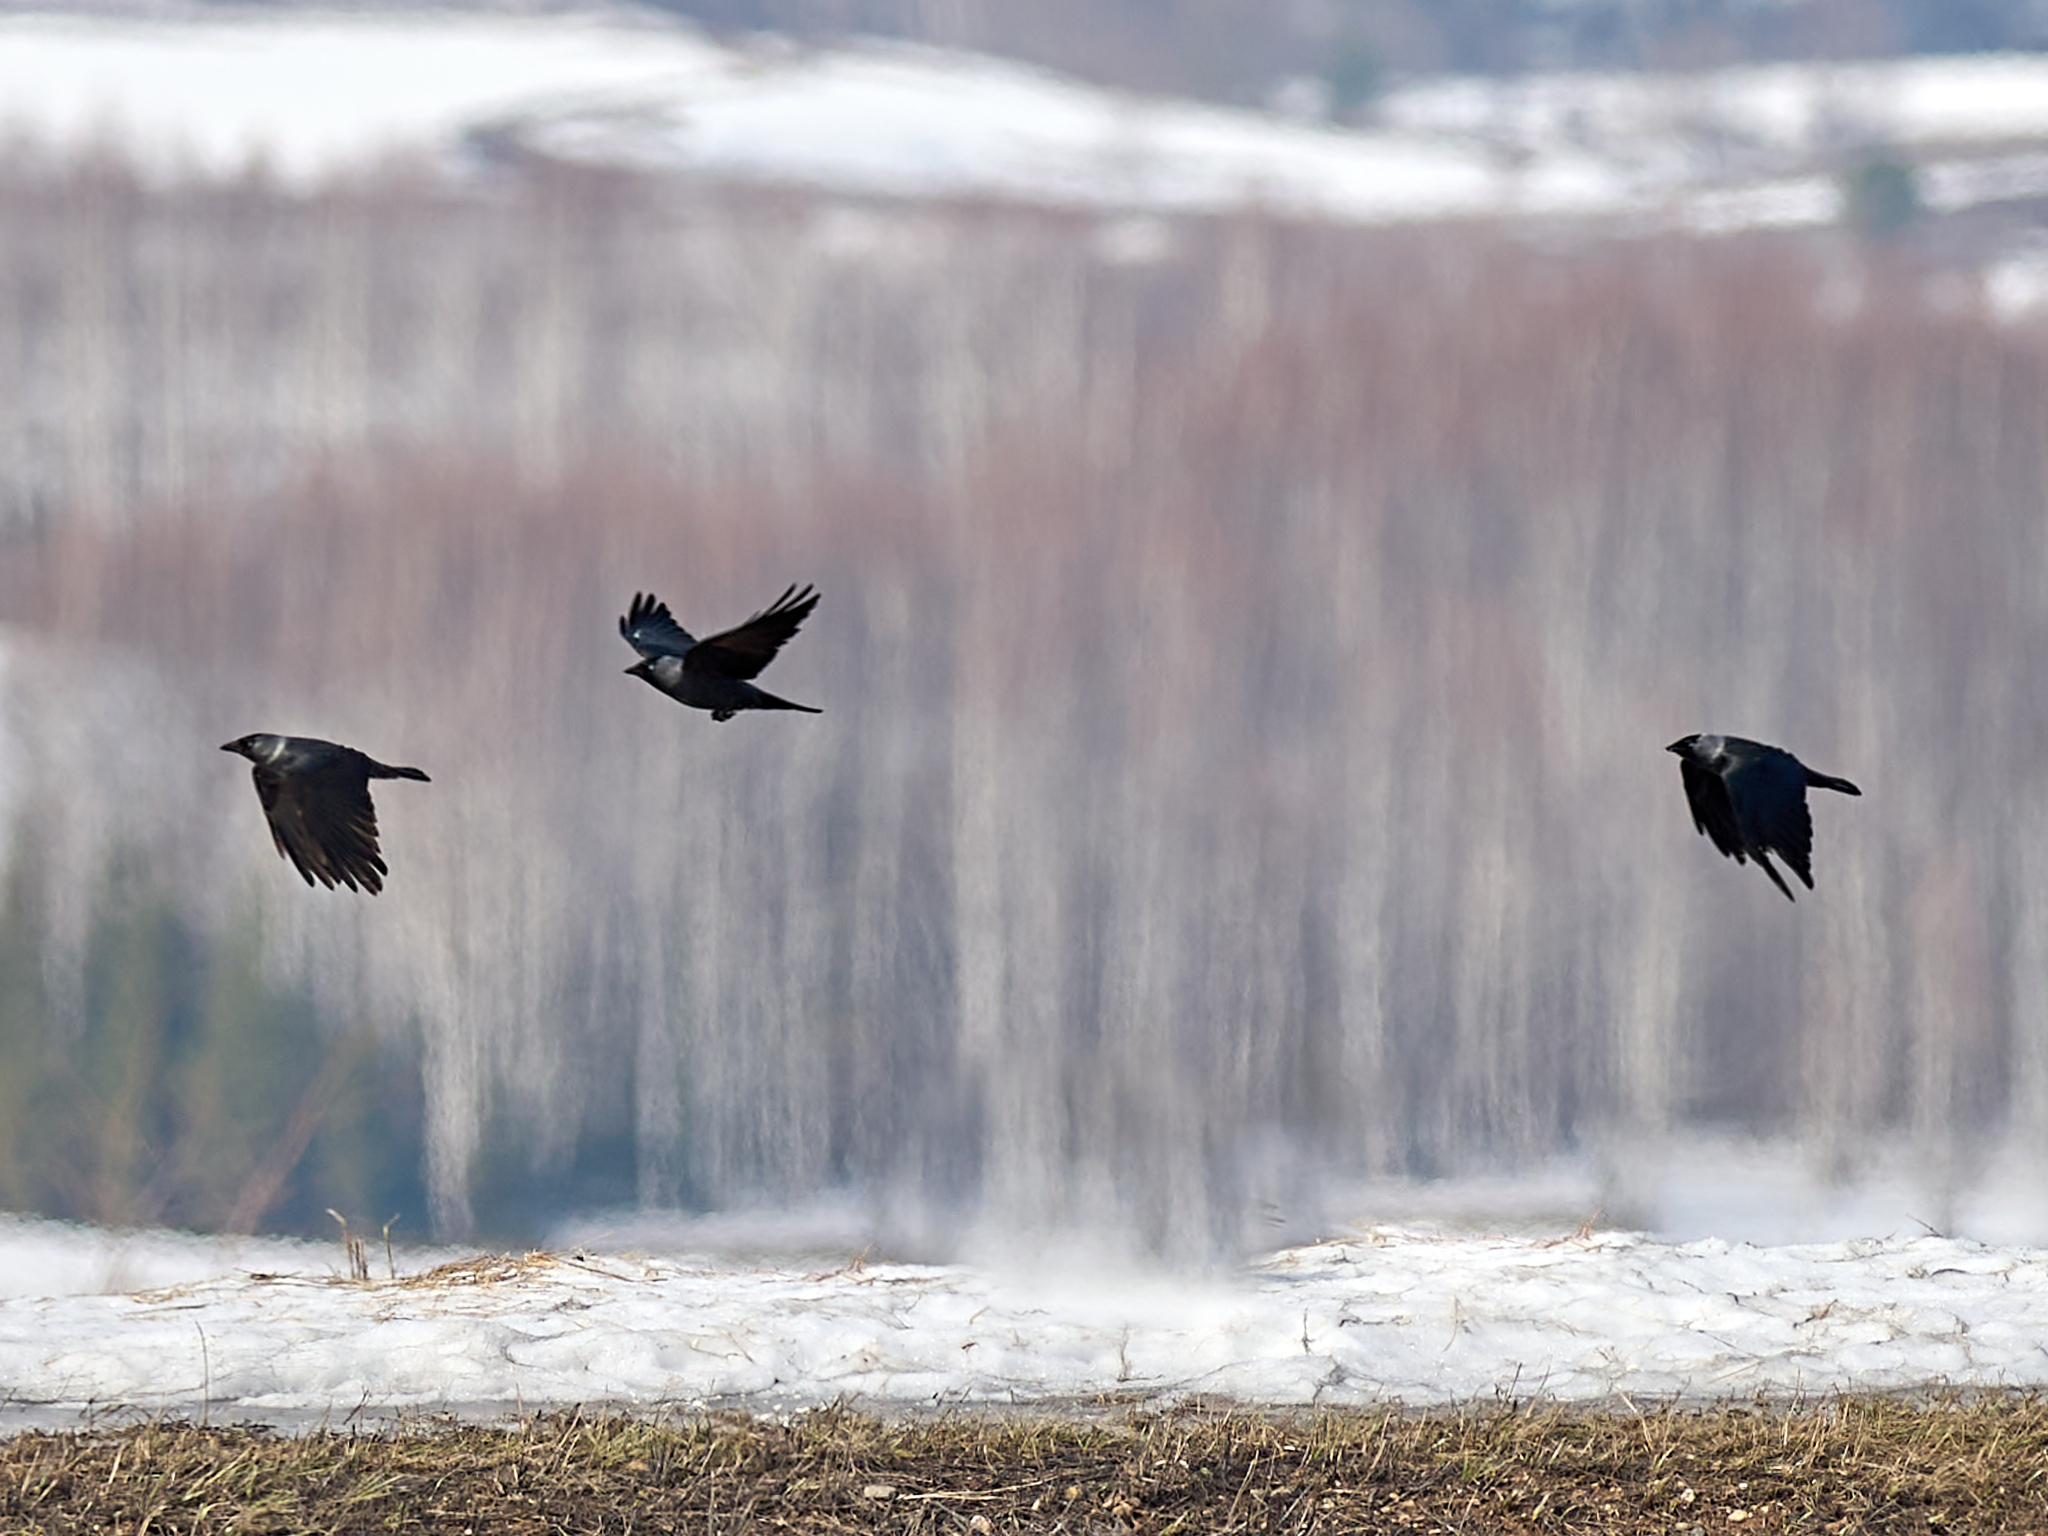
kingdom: Animalia
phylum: Chordata
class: Aves
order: Passeriformes
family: Corvidae
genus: Coloeus
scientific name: Coloeus monedula
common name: Western jackdaw
